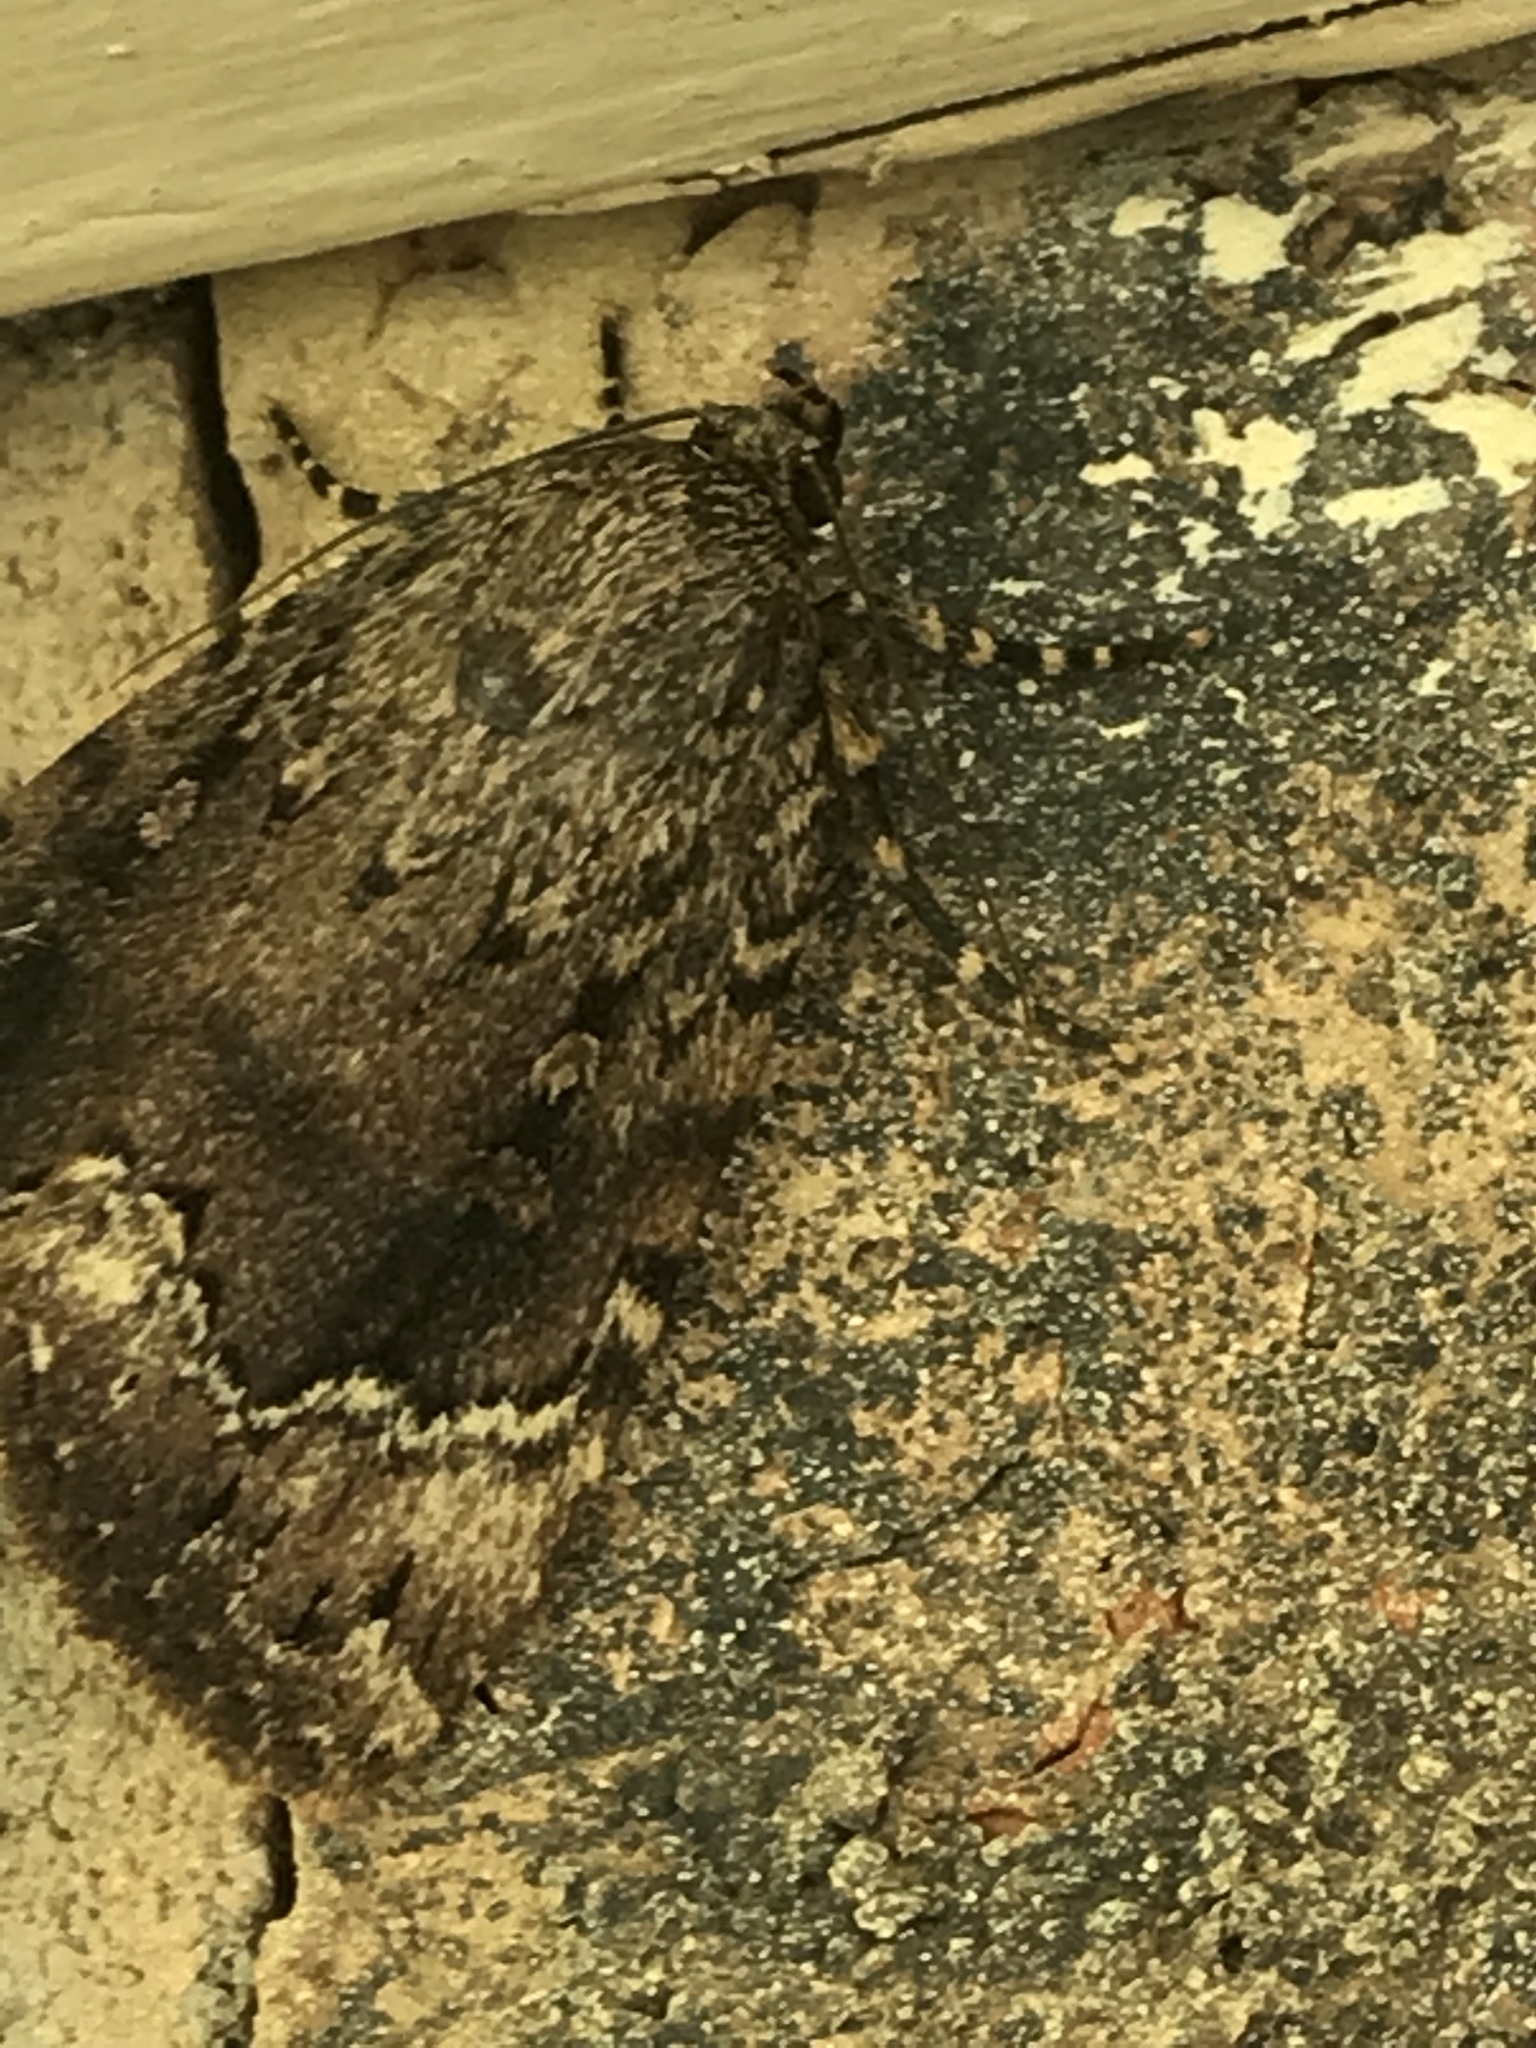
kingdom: Animalia
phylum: Arthropoda
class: Insecta
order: Lepidoptera
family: Noctuidae
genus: Amphipyra
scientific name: Amphipyra pyramidoides
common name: American copper underwing
